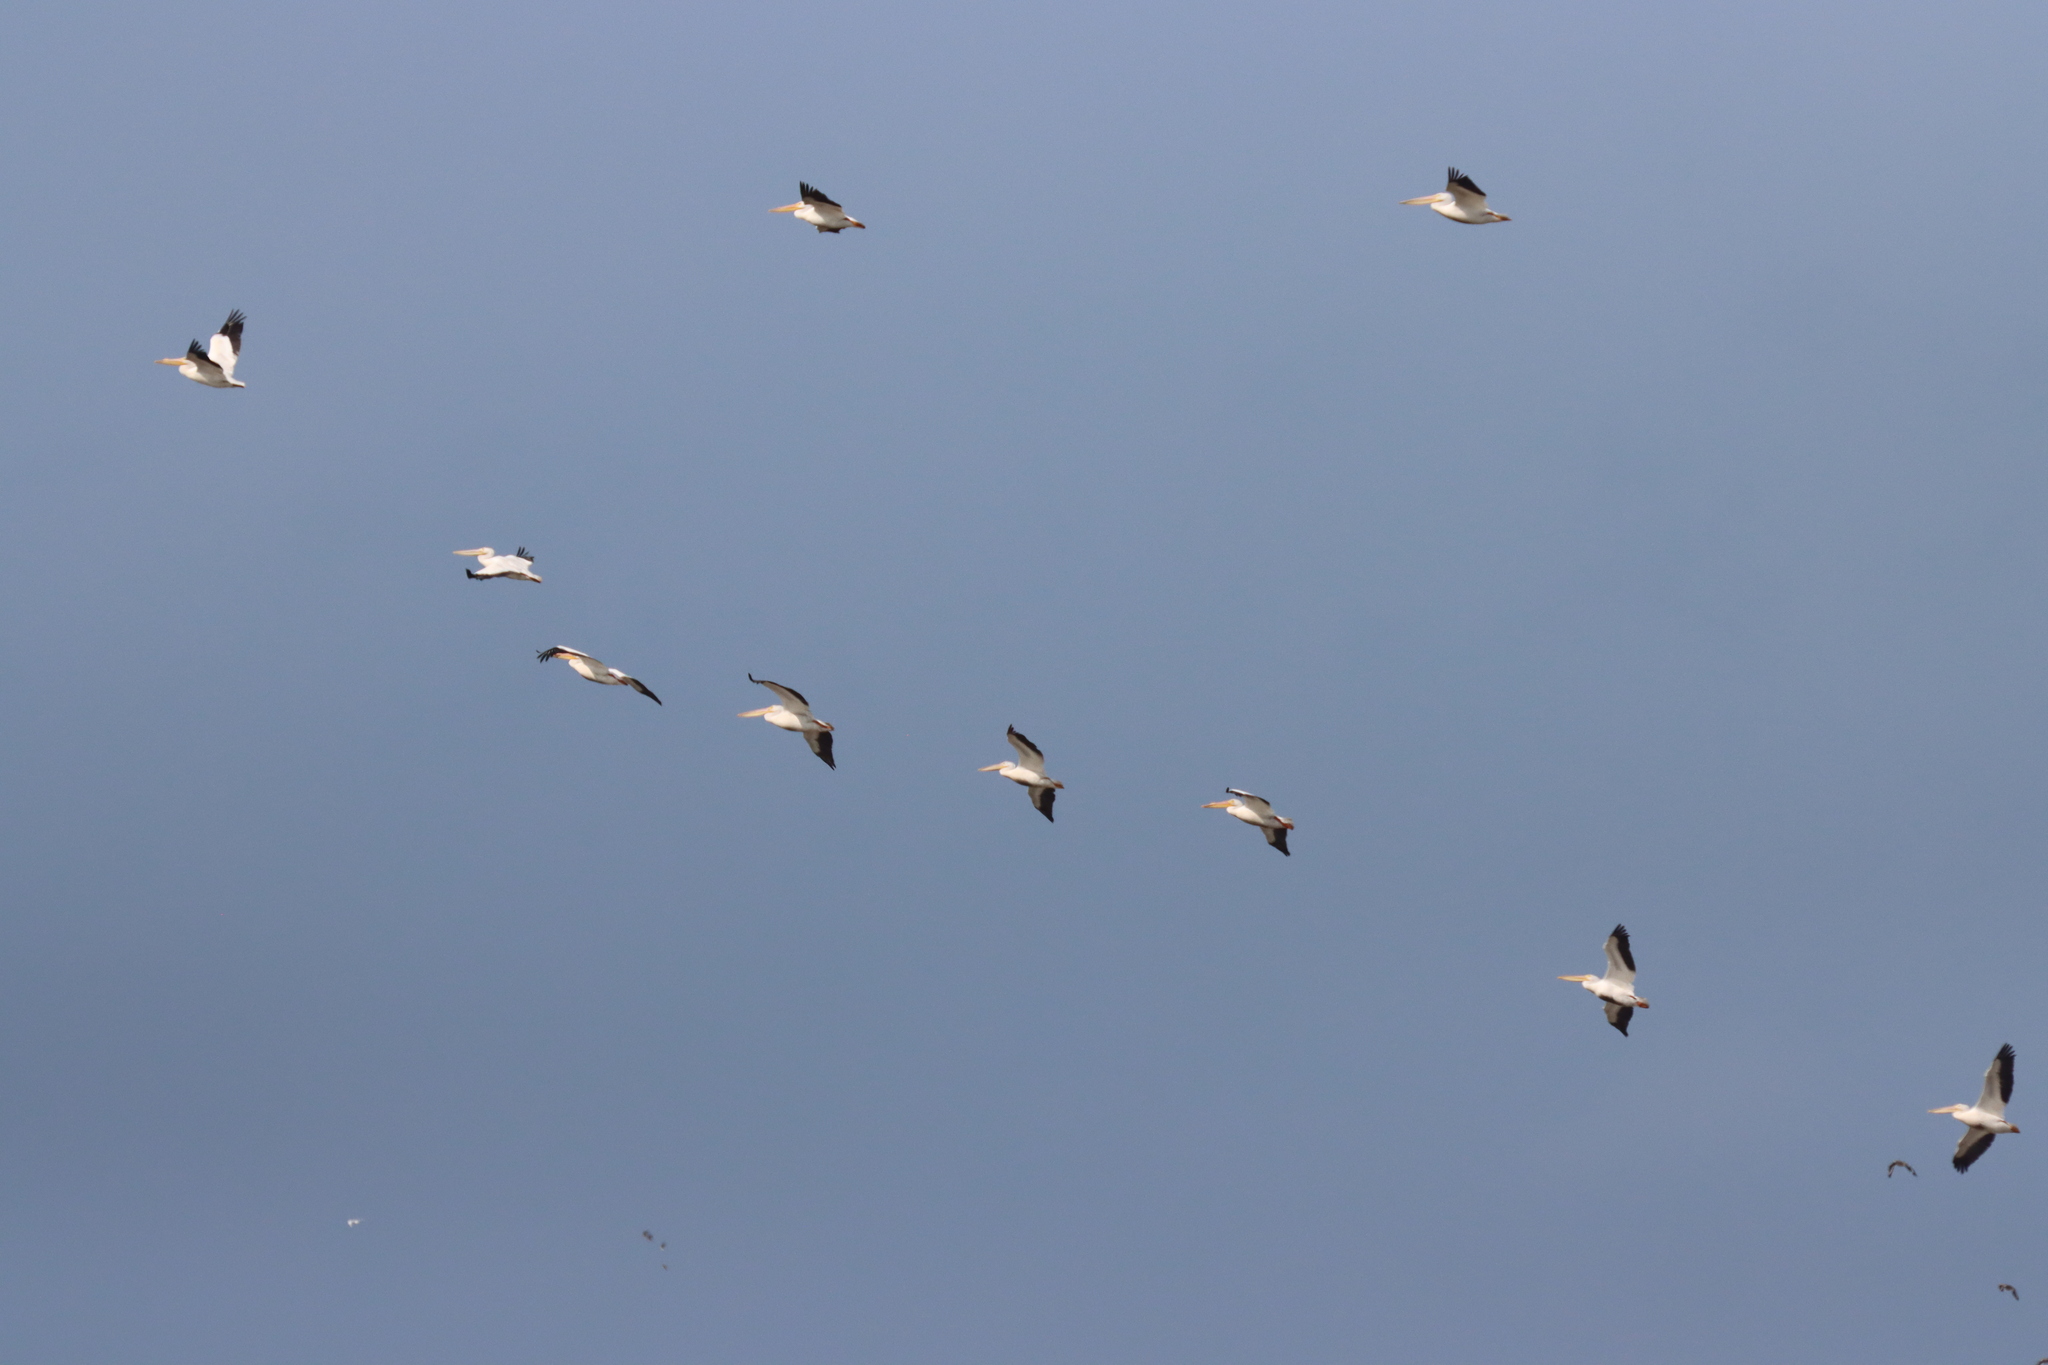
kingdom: Animalia
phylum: Chordata
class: Aves
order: Pelecaniformes
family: Pelecanidae
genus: Pelecanus
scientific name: Pelecanus erythrorhynchos
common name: American white pelican
